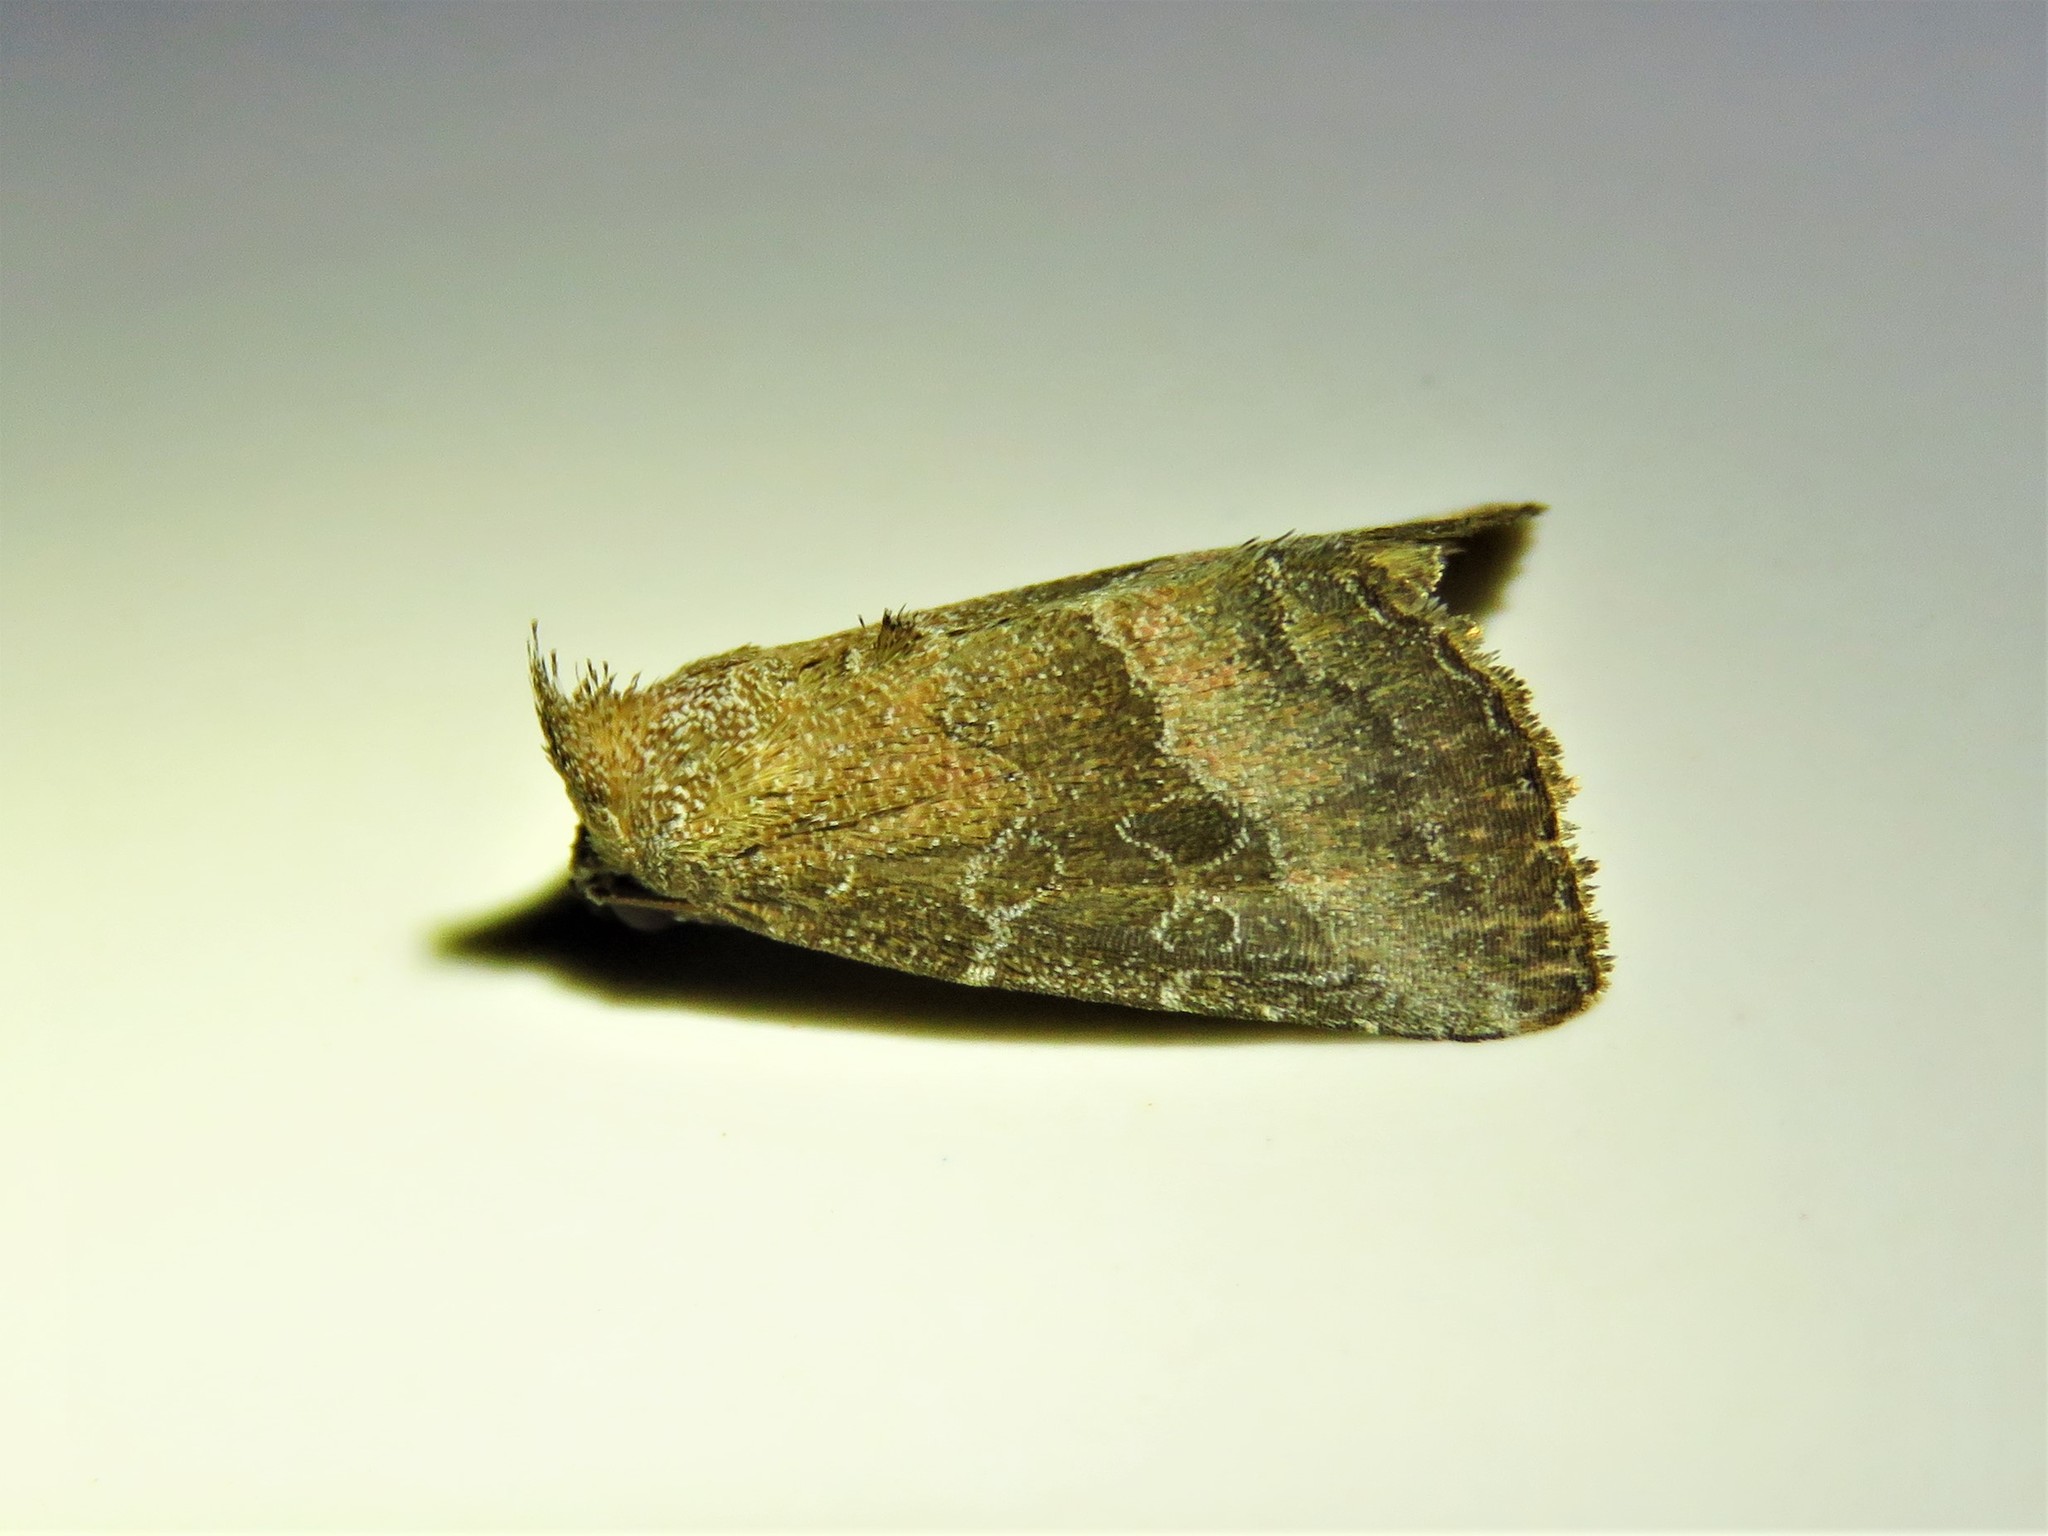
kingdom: Animalia
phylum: Arthropoda
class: Insecta
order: Lepidoptera
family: Noctuidae
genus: Ogdoconta
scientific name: Ogdoconta cinereola
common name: Common pinkband
